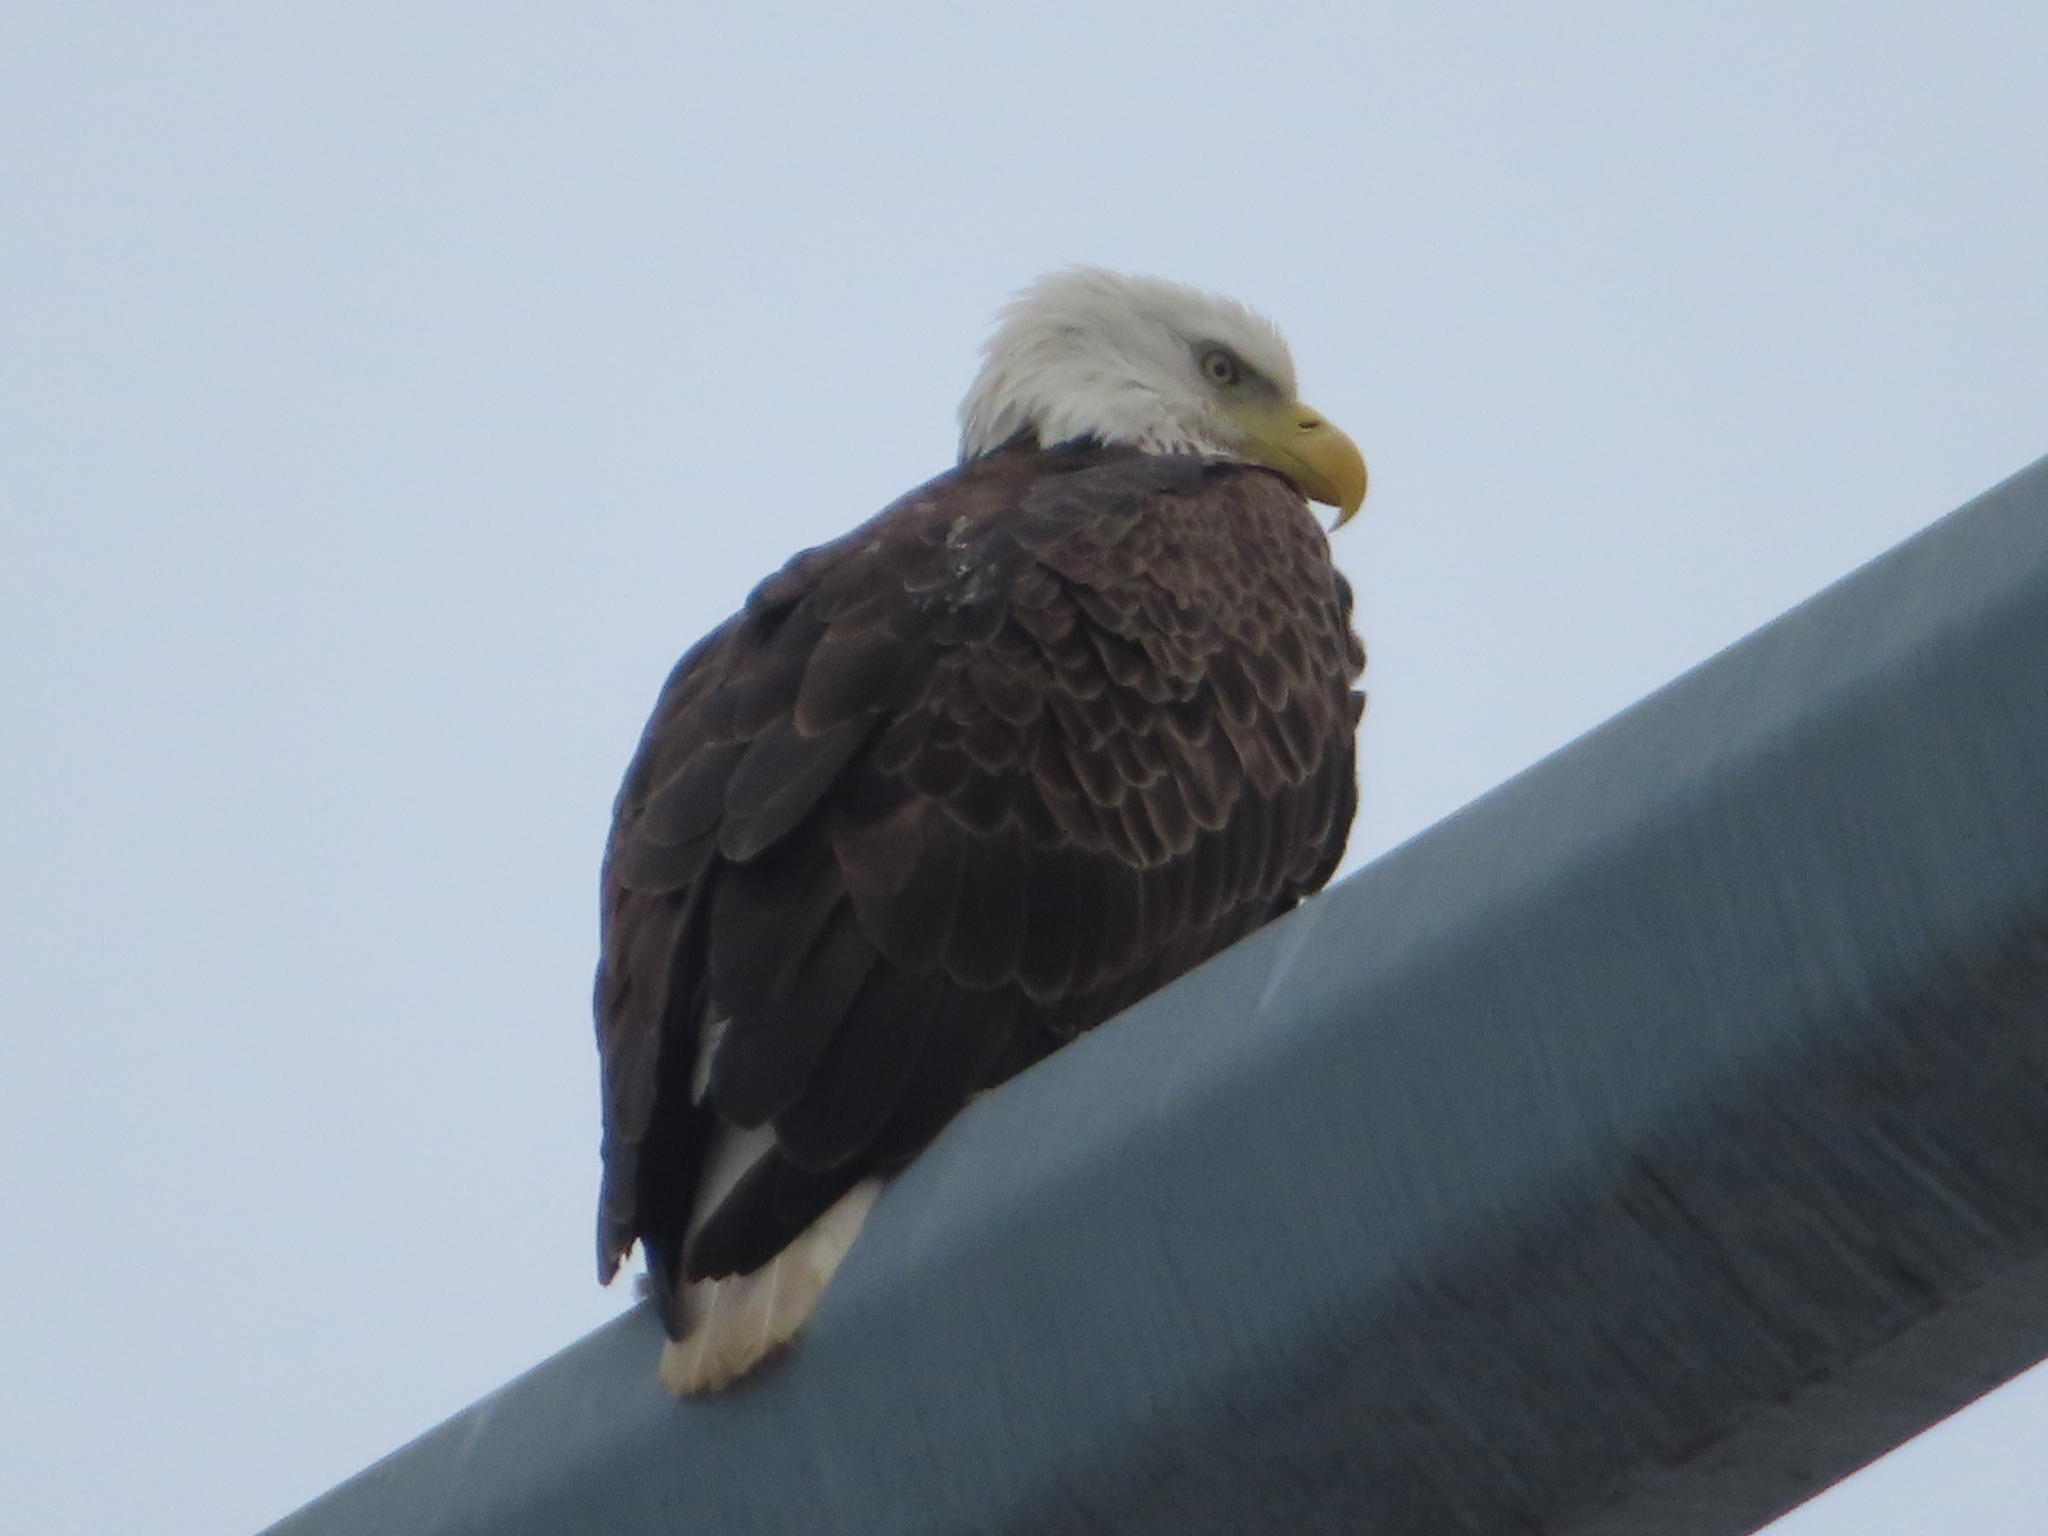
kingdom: Animalia
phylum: Chordata
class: Aves
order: Accipitriformes
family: Accipitridae
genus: Haliaeetus
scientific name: Haliaeetus leucocephalus
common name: Bald eagle
